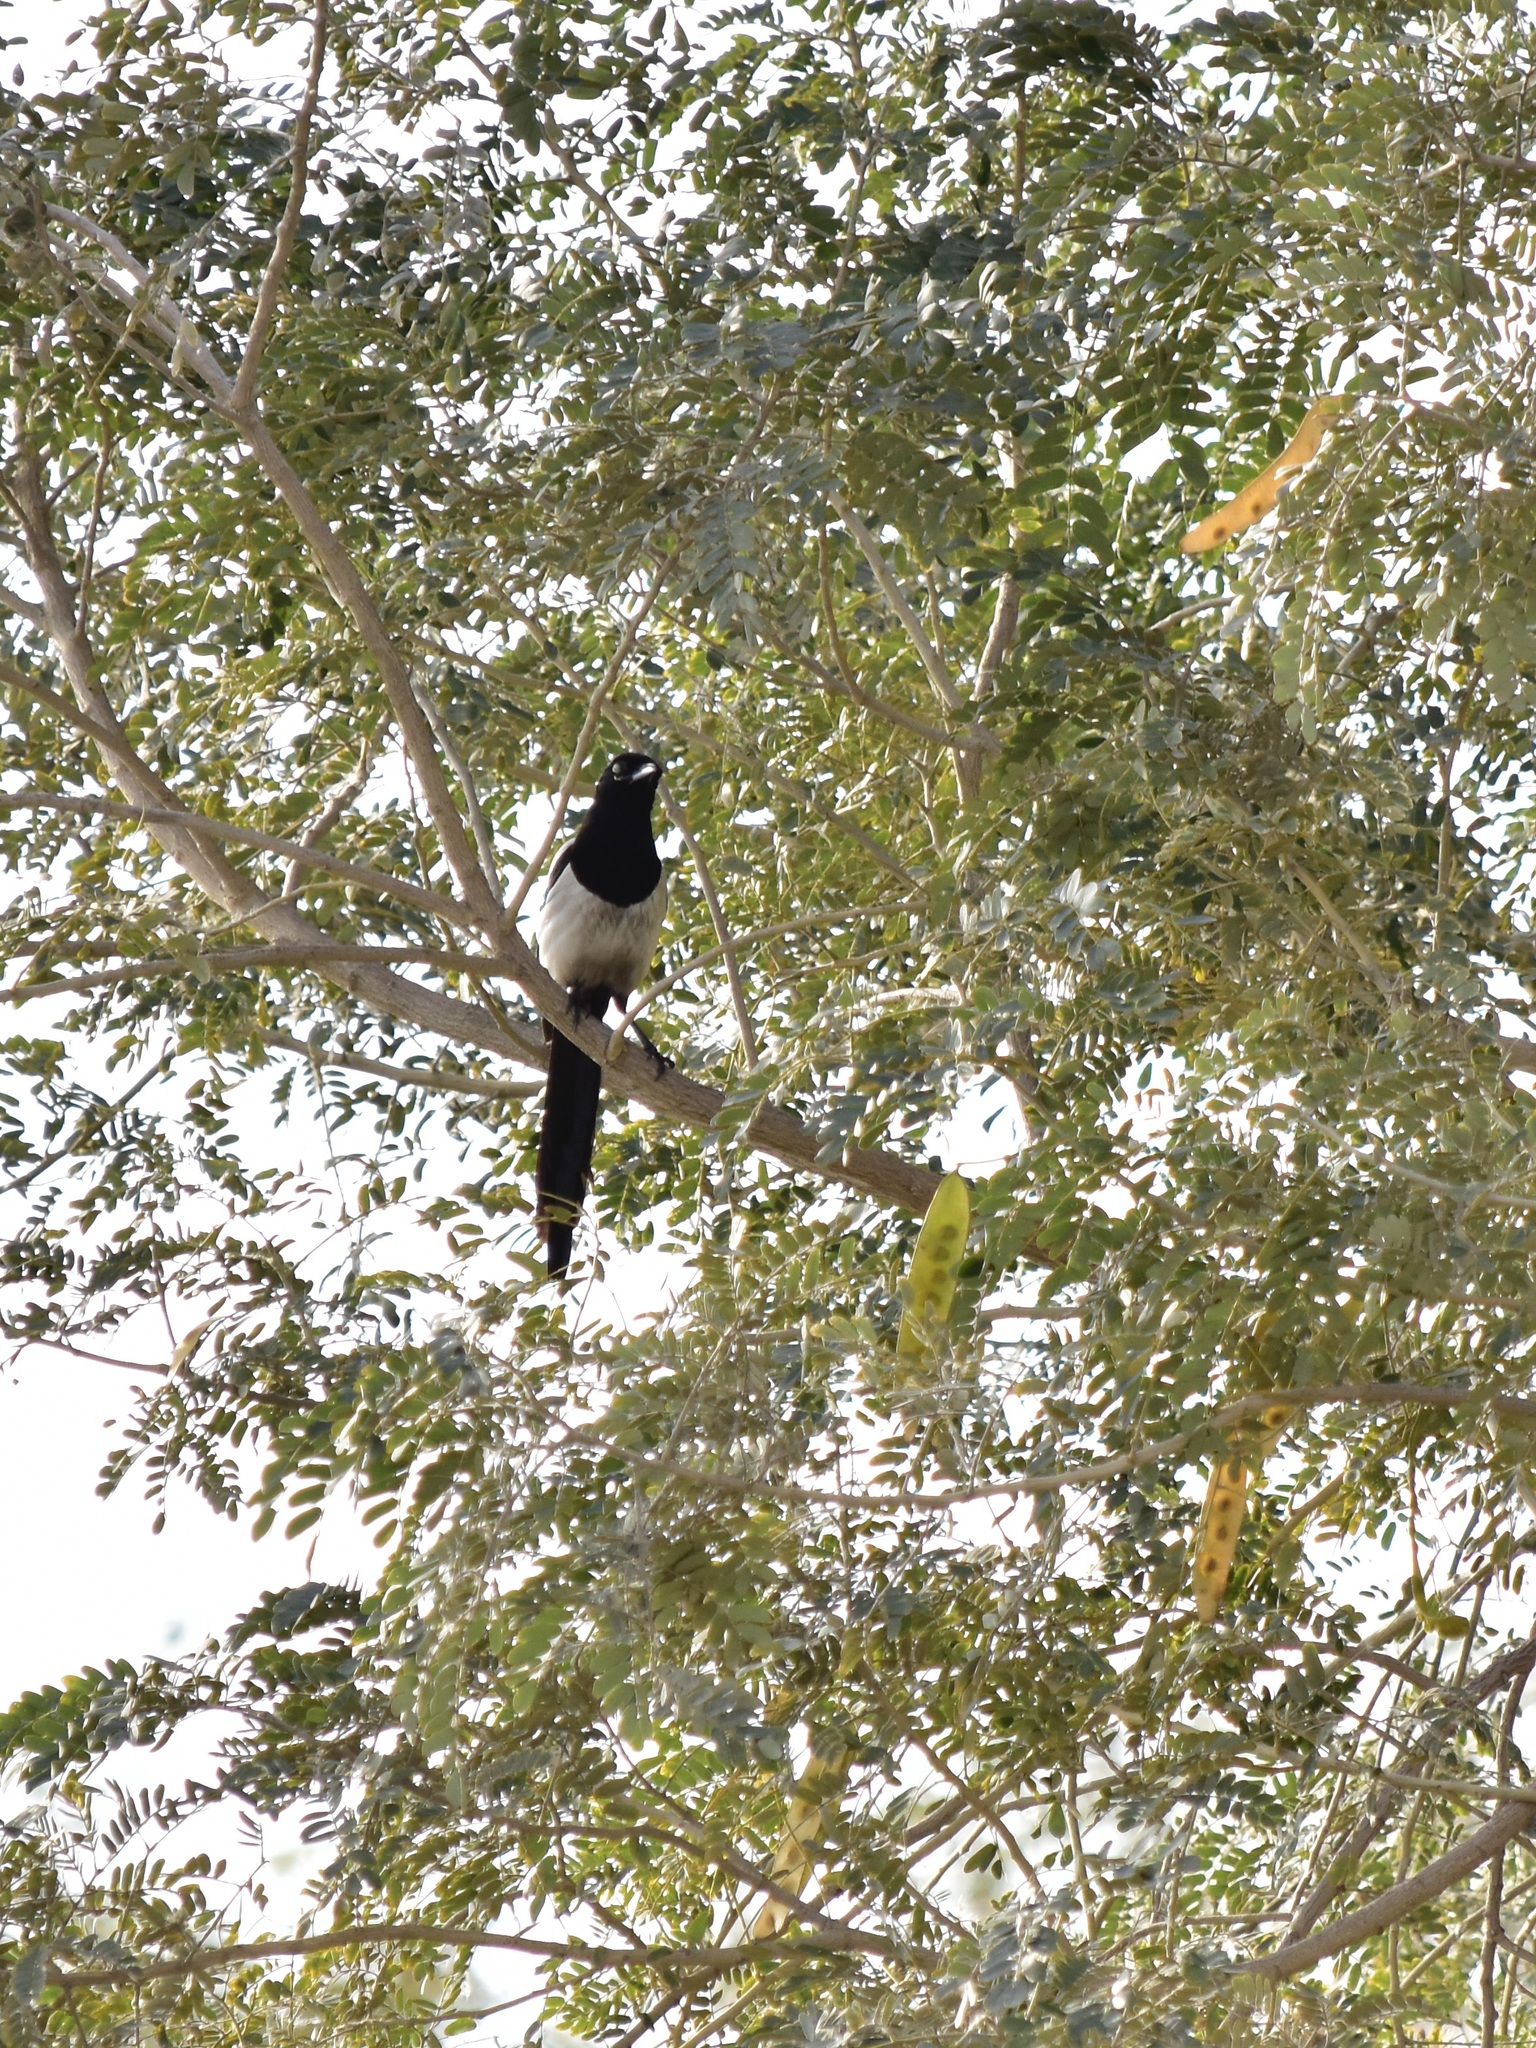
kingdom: Animalia
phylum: Chordata
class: Aves
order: Passeriformes
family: Corvidae
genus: Pica
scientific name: Pica pica
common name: Eurasian magpie
